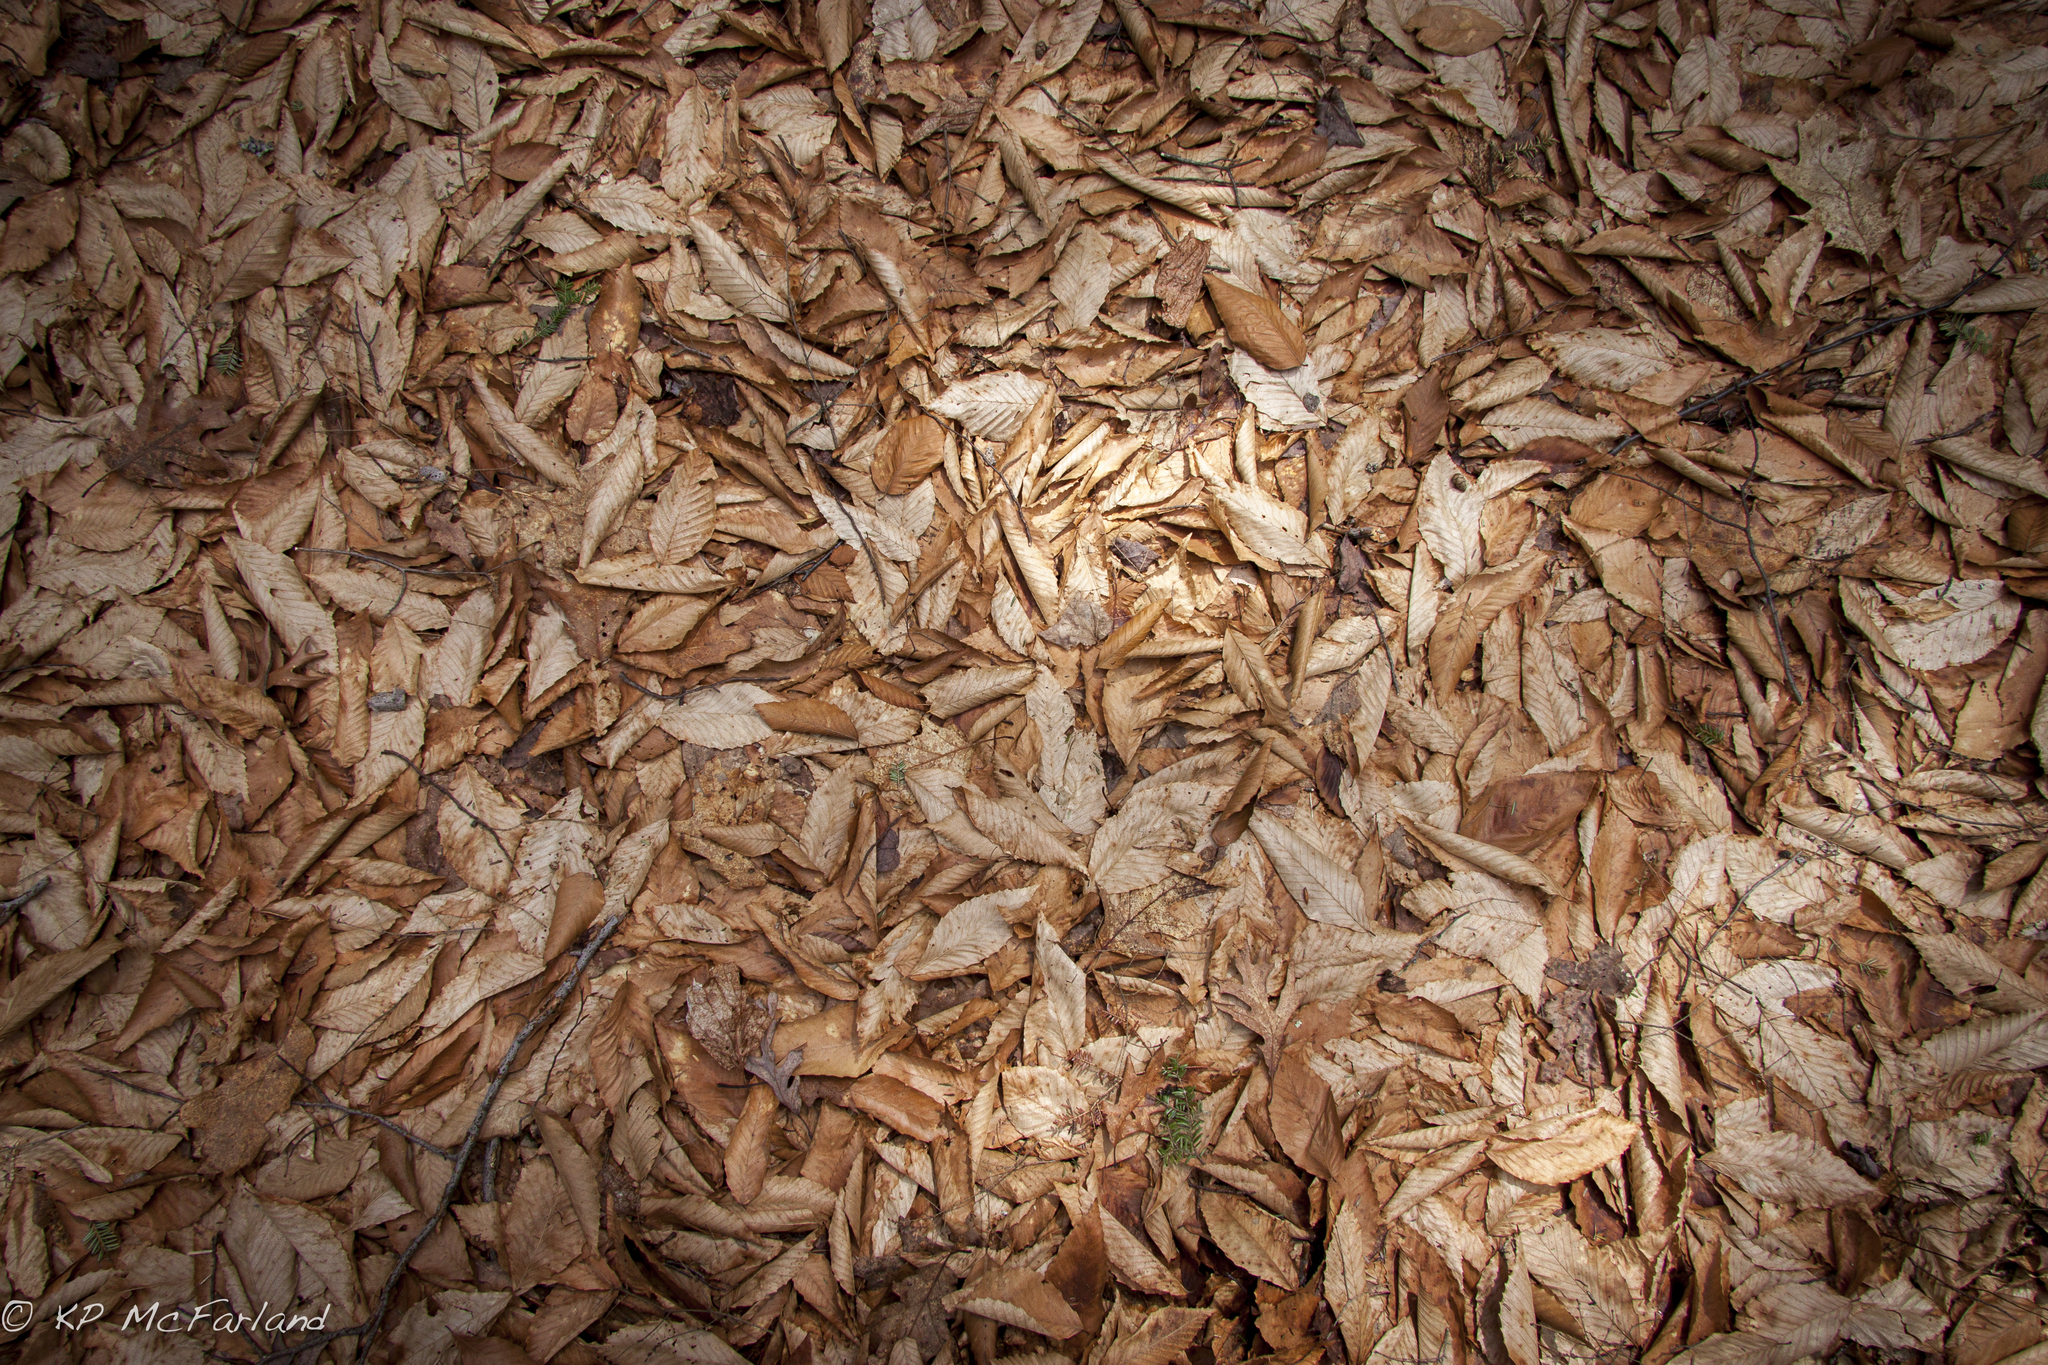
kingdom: Plantae
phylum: Tracheophyta
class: Magnoliopsida
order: Fagales
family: Fagaceae
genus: Fagus
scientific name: Fagus grandifolia
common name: American beech
